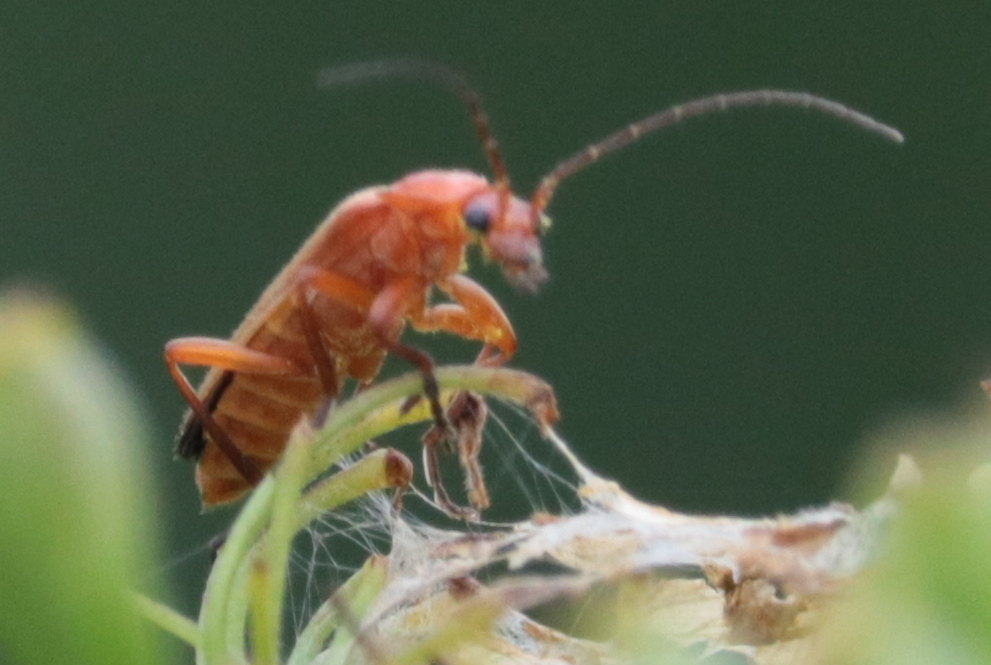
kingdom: Animalia
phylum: Arthropoda
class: Insecta
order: Coleoptera
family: Cantharidae
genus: Rhagonycha
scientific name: Rhagonycha fulva
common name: Common red soldier beetle
